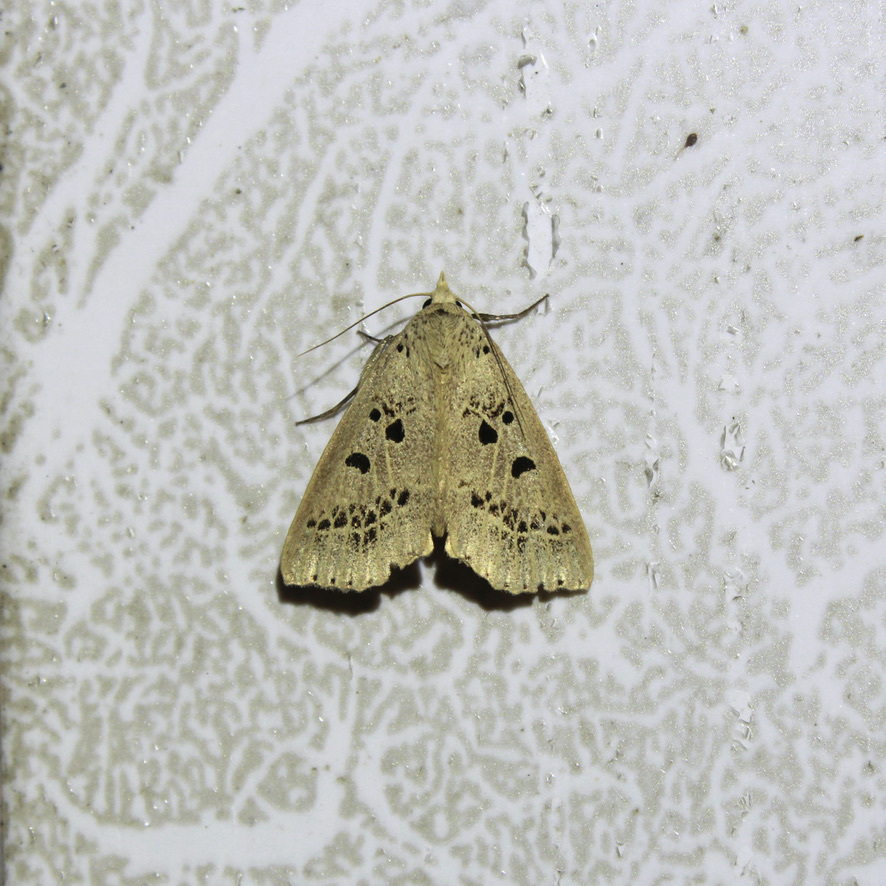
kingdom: Animalia
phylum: Arthropoda
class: Insecta
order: Lepidoptera
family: Erebidae
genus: Scolecocampa
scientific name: Scolecocampa Herminodes atrosignata
